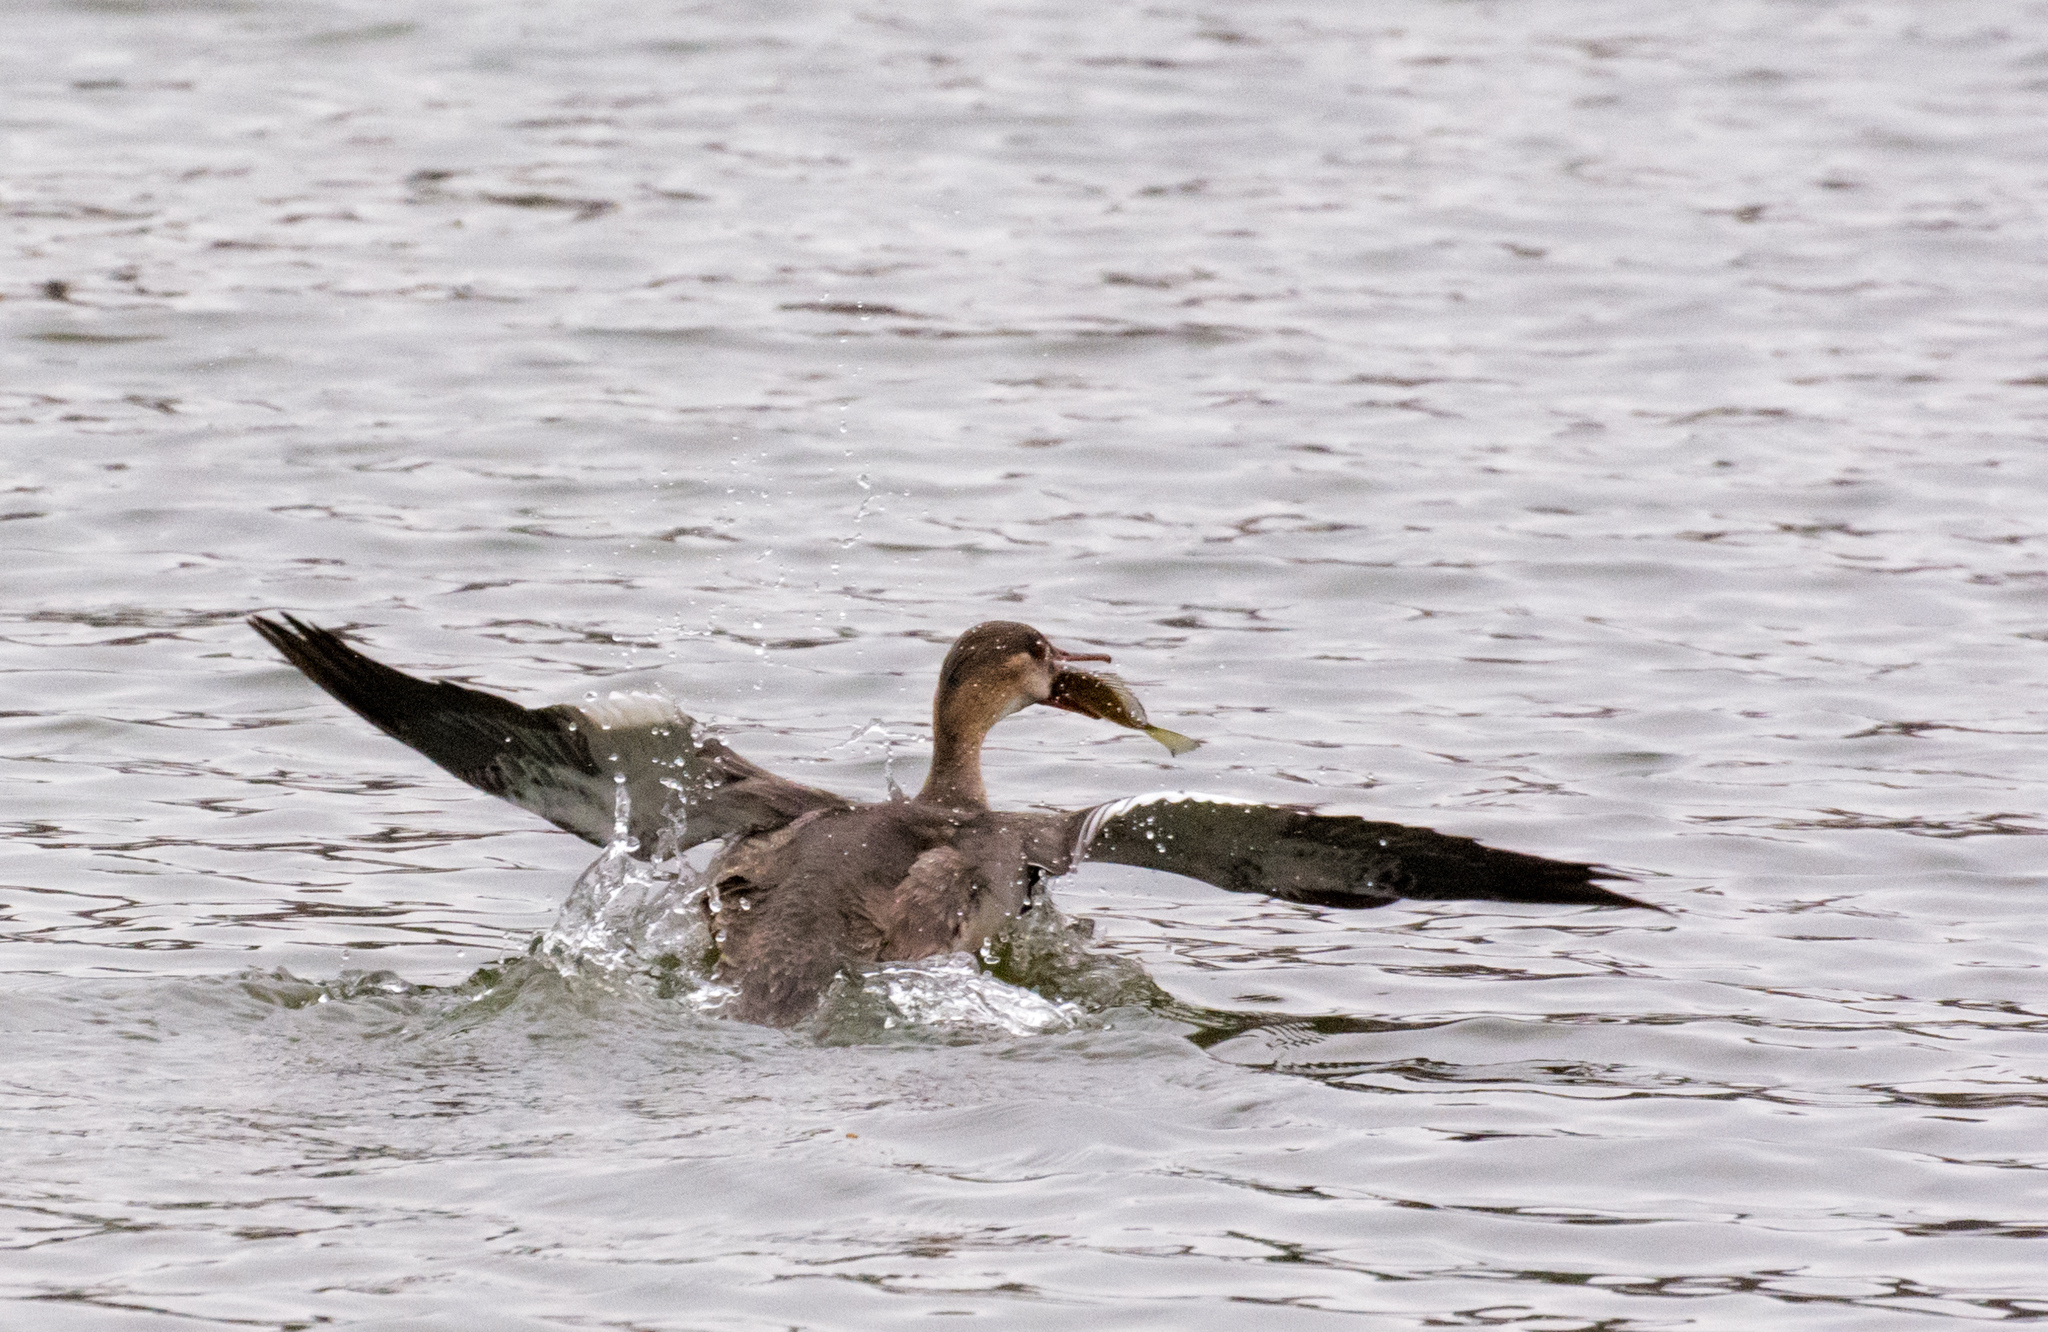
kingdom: Animalia
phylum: Chordata
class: Aves
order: Anseriformes
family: Anatidae
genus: Mergus
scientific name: Mergus serrator
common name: Red-breasted merganser
